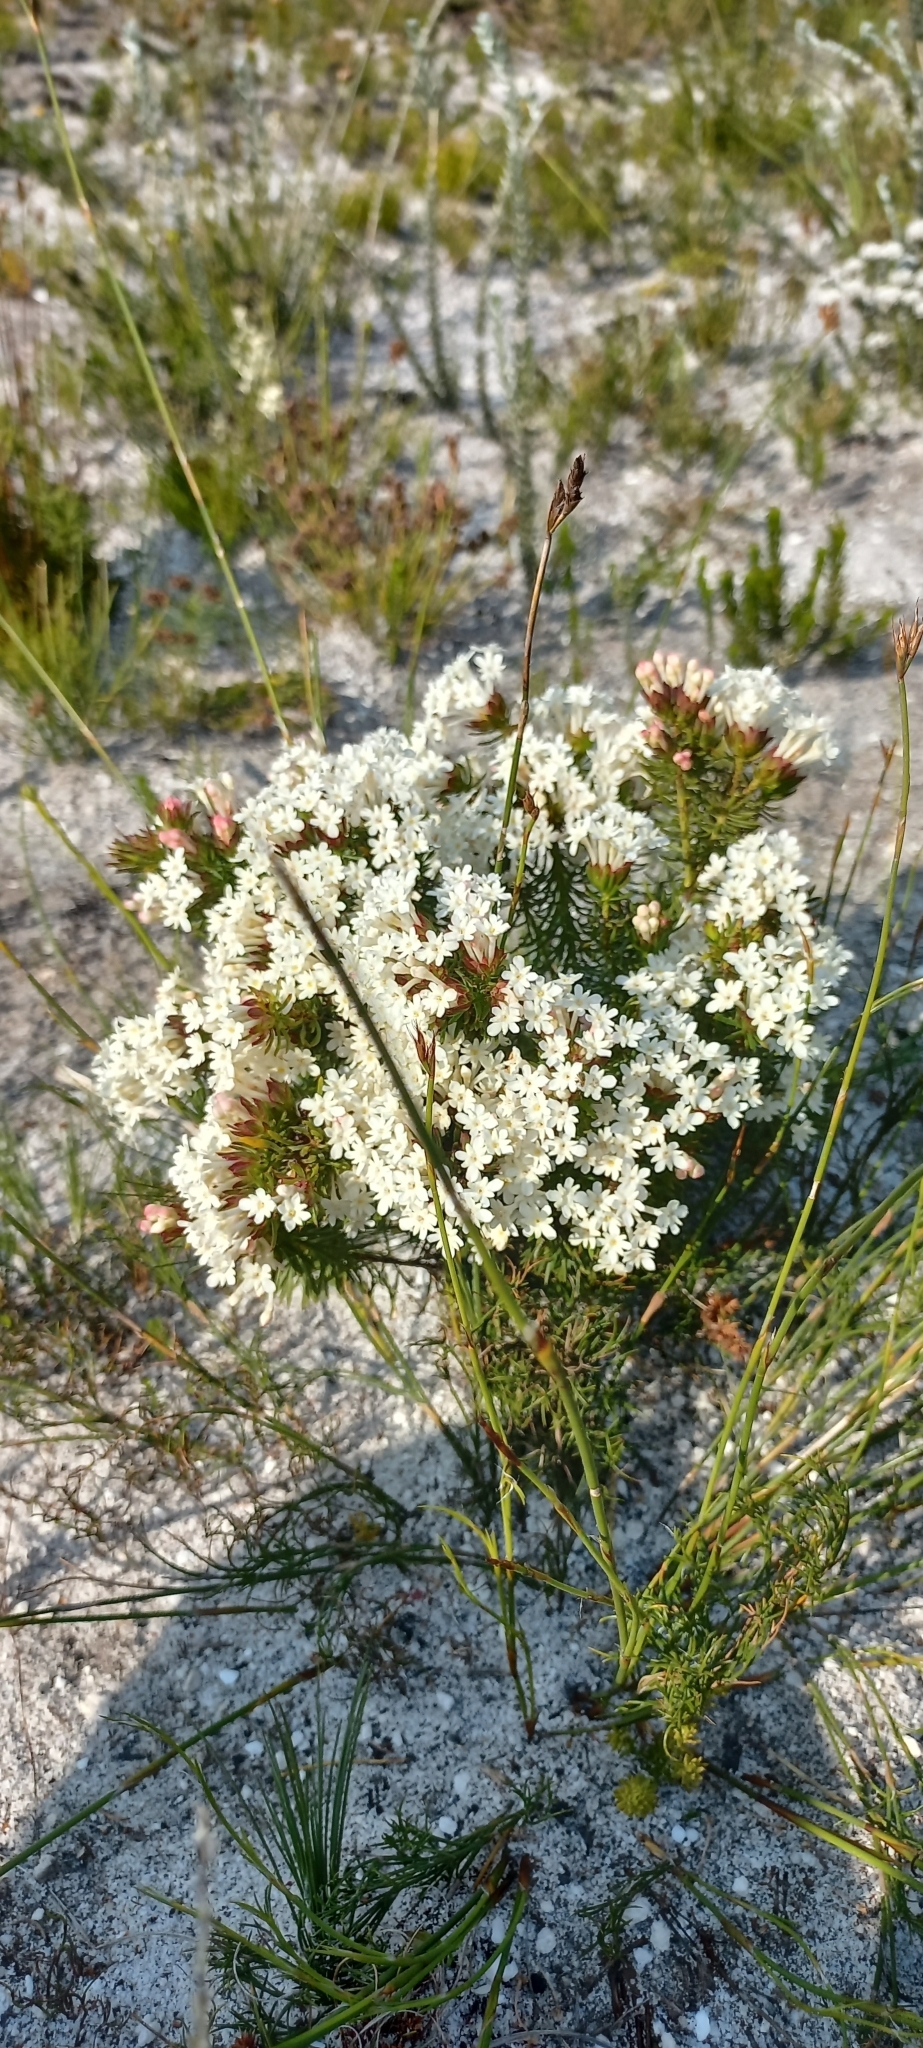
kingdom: Plantae
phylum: Tracheophyta
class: Magnoliopsida
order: Malvales
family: Thymelaeaceae
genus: Gnidia
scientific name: Gnidia pinifolia
